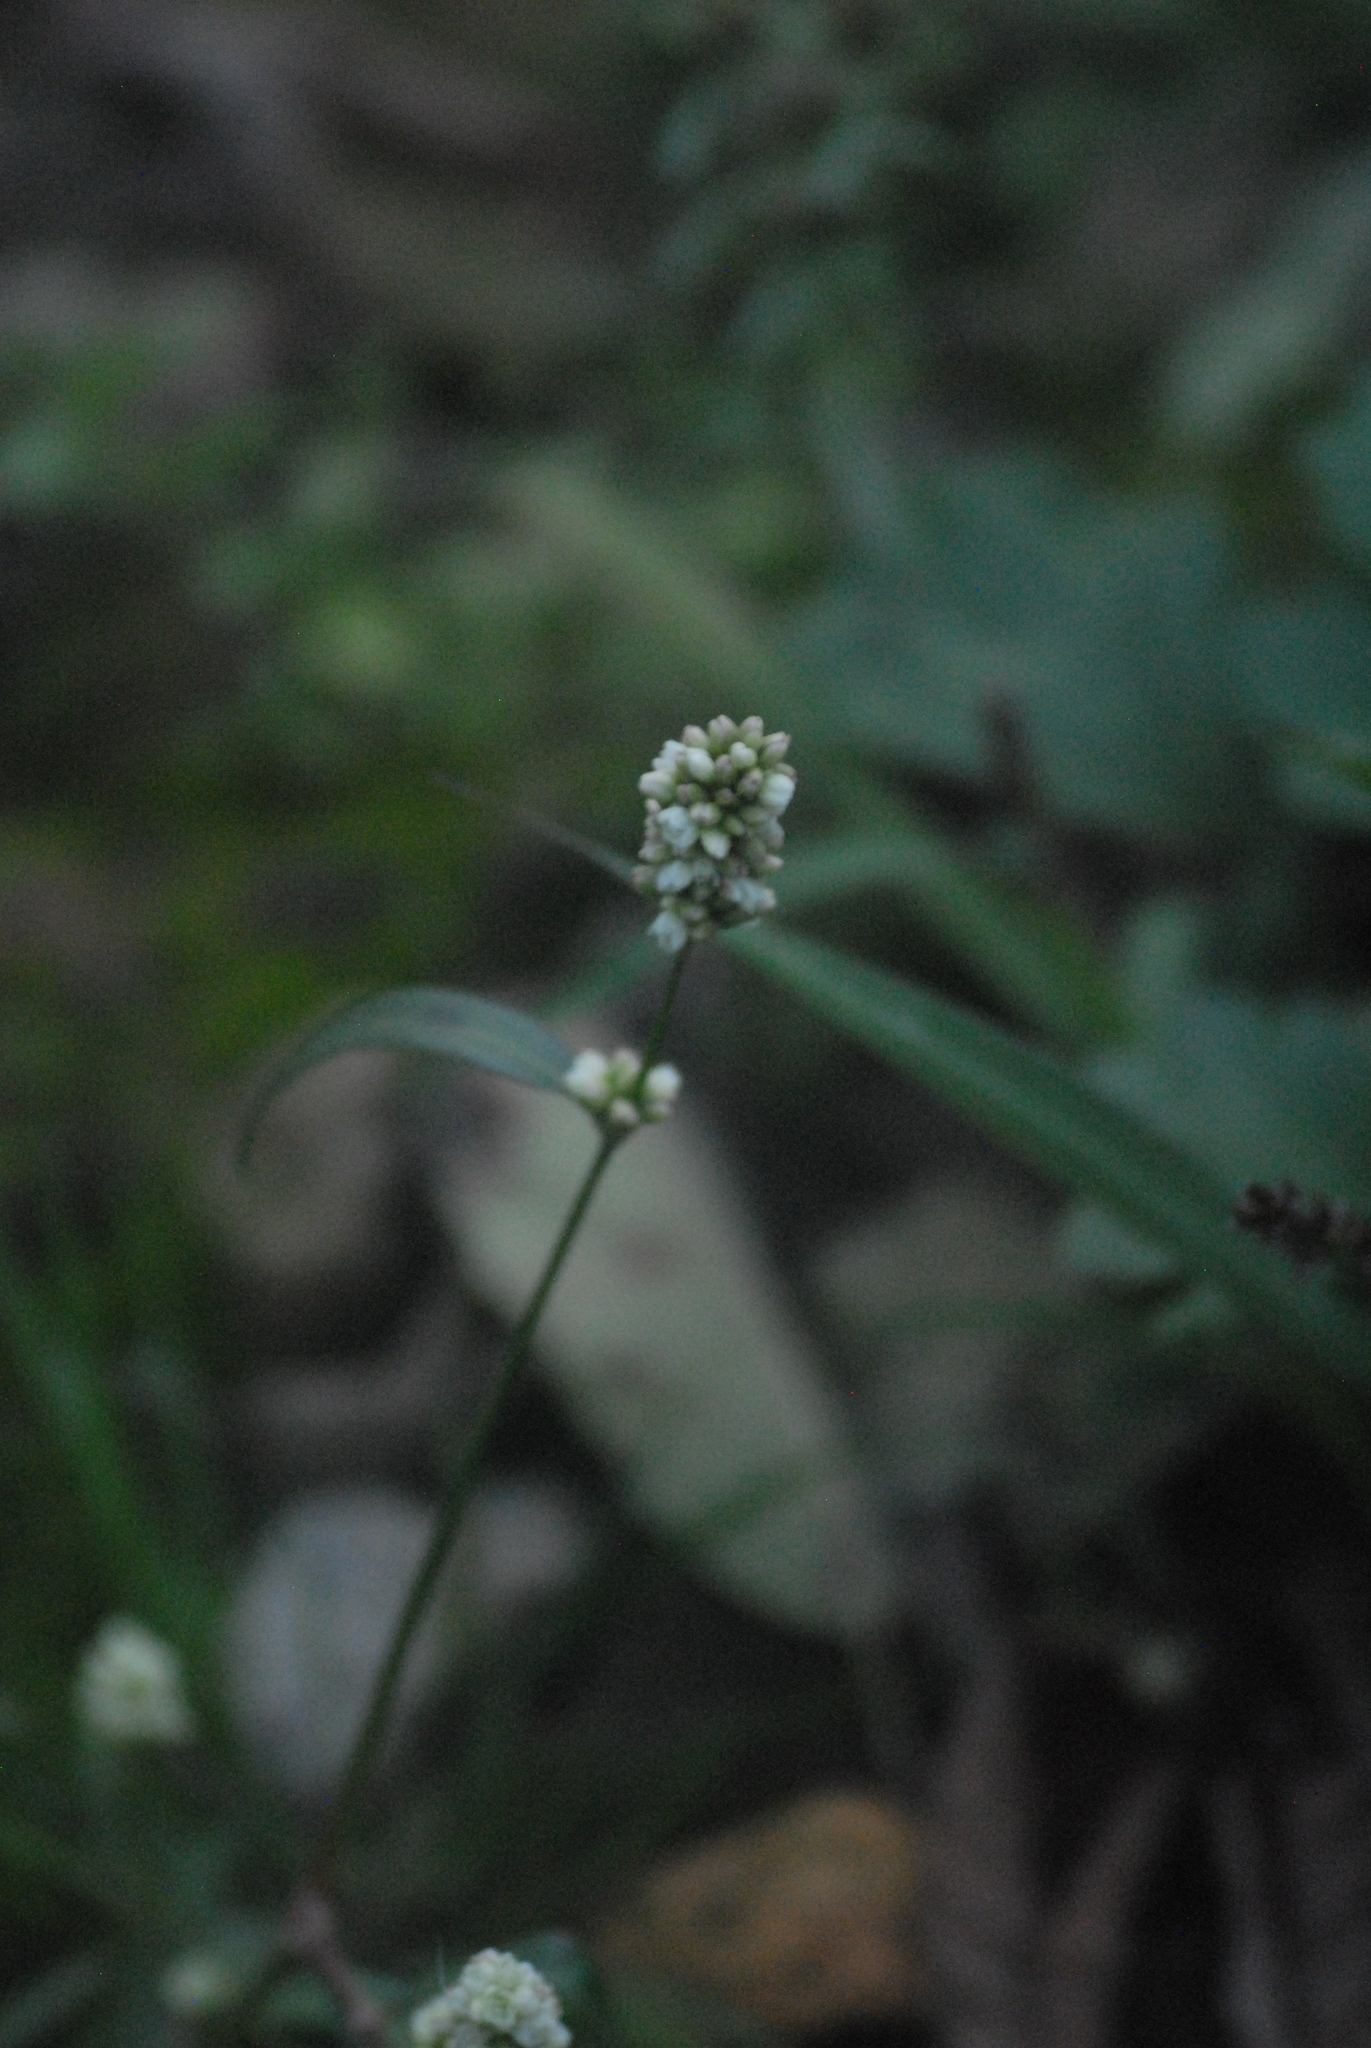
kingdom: Plantae
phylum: Tracheophyta
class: Magnoliopsida
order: Caryophyllales
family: Polygonaceae
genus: Persicaria
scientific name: Persicaria maculosa
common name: Redshank
